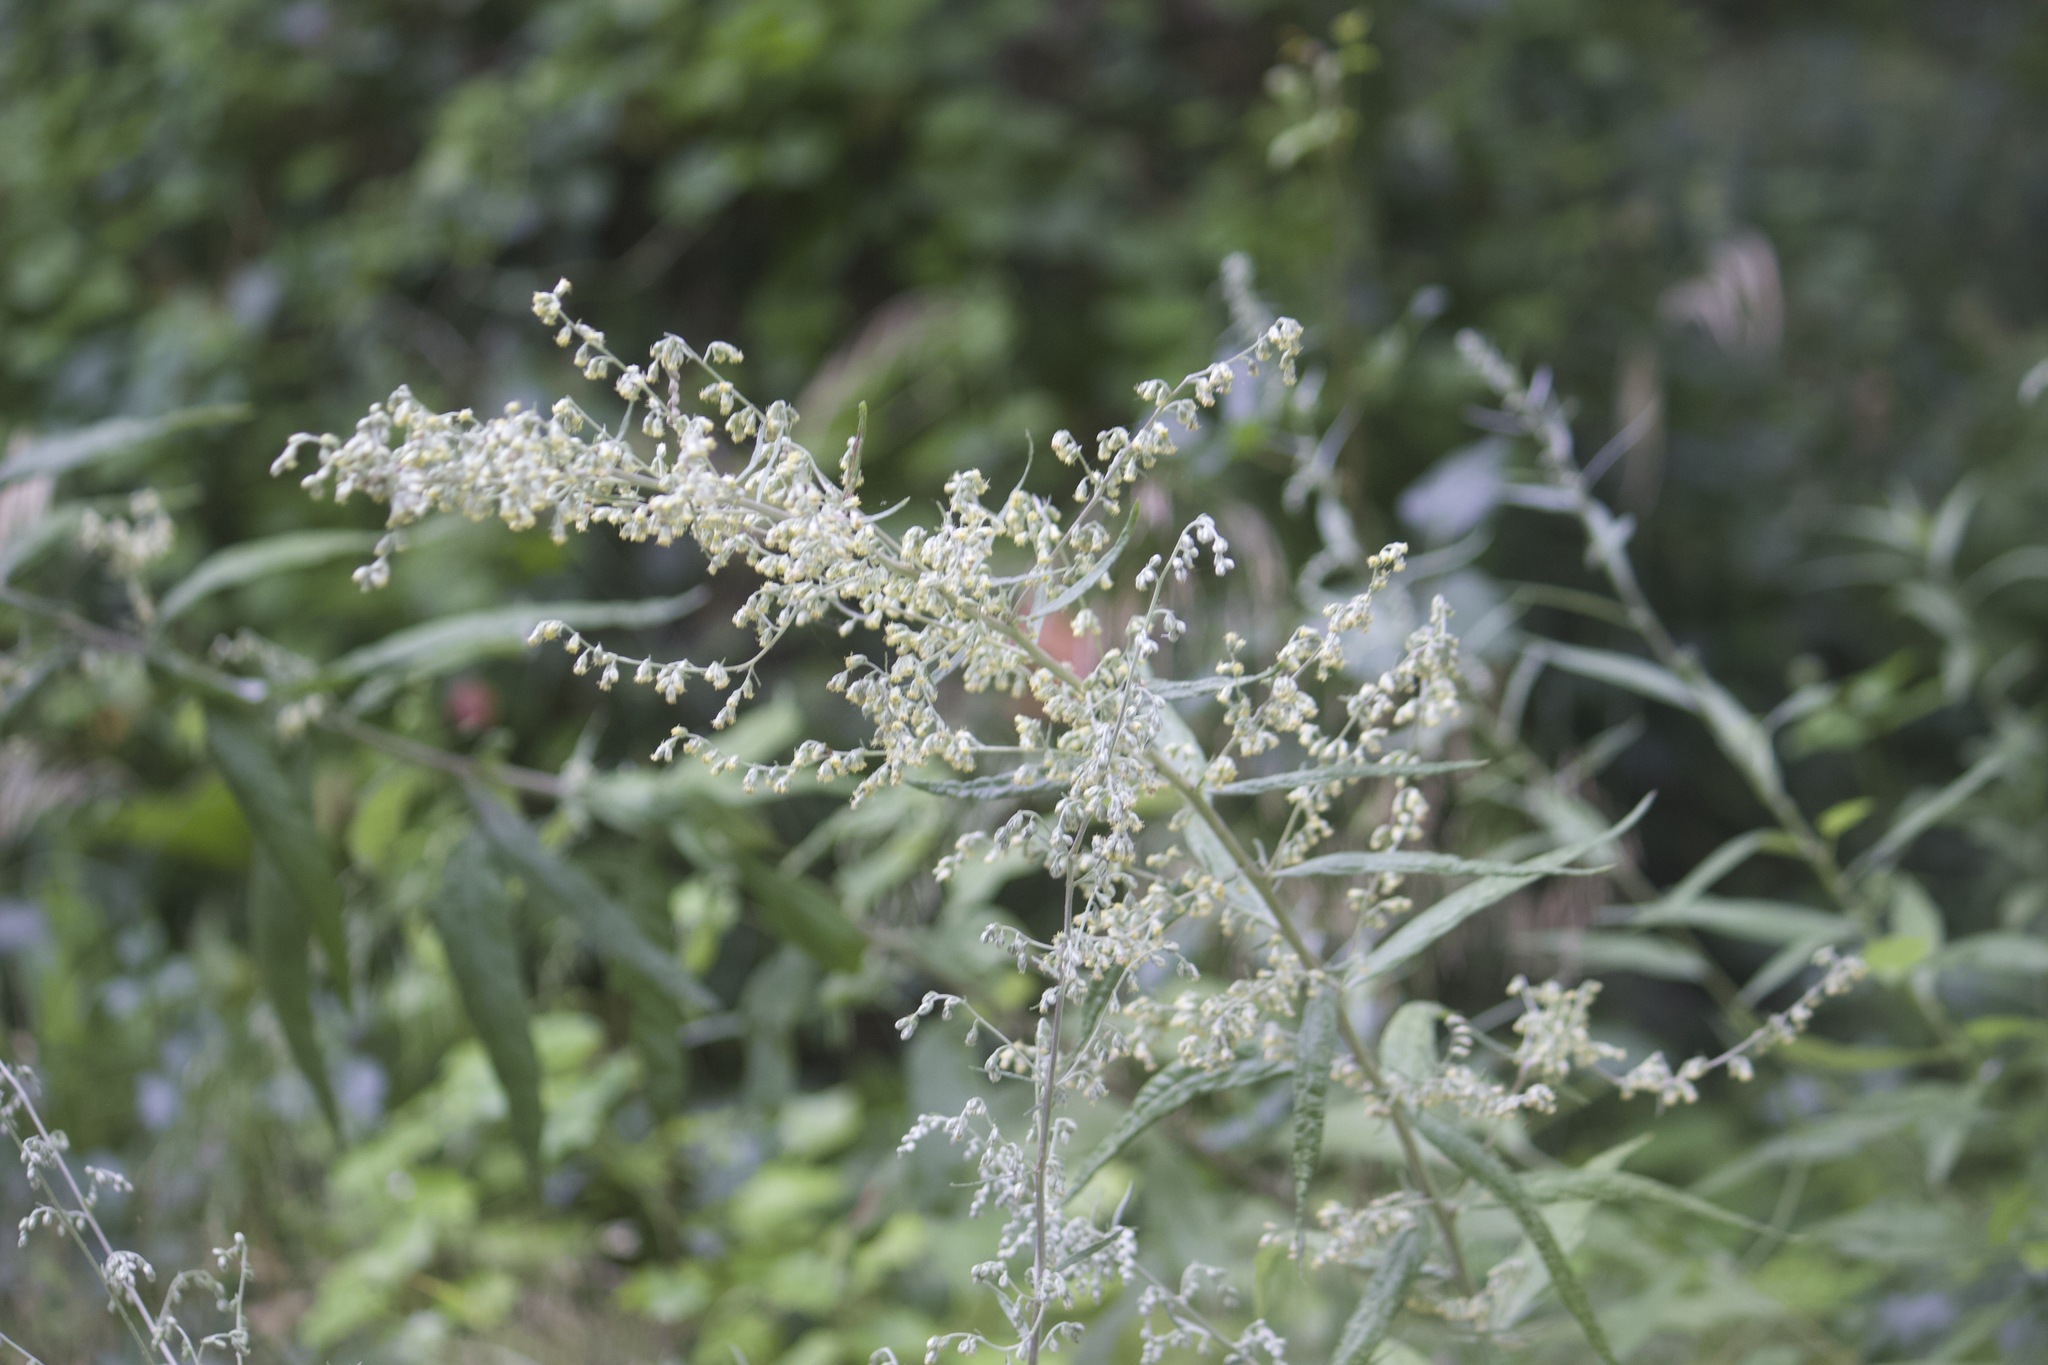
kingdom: Plantae
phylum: Tracheophyta
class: Magnoliopsida
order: Asterales
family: Asteraceae
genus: Artemisia
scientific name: Artemisia douglasiana
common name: Northwest mugwort
